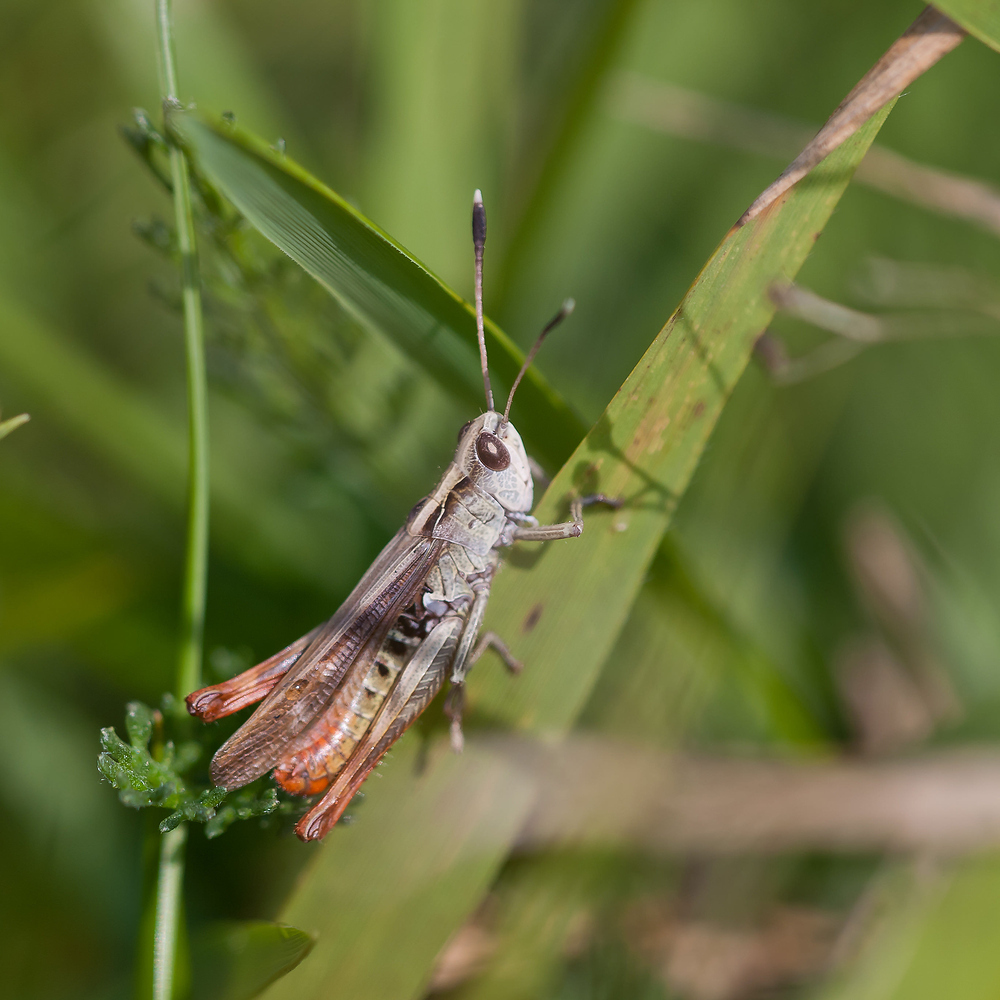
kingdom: Animalia
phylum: Arthropoda
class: Insecta
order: Orthoptera
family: Acrididae
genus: Gomphocerippus
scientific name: Gomphocerippus rufus
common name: Rufous grasshopper
